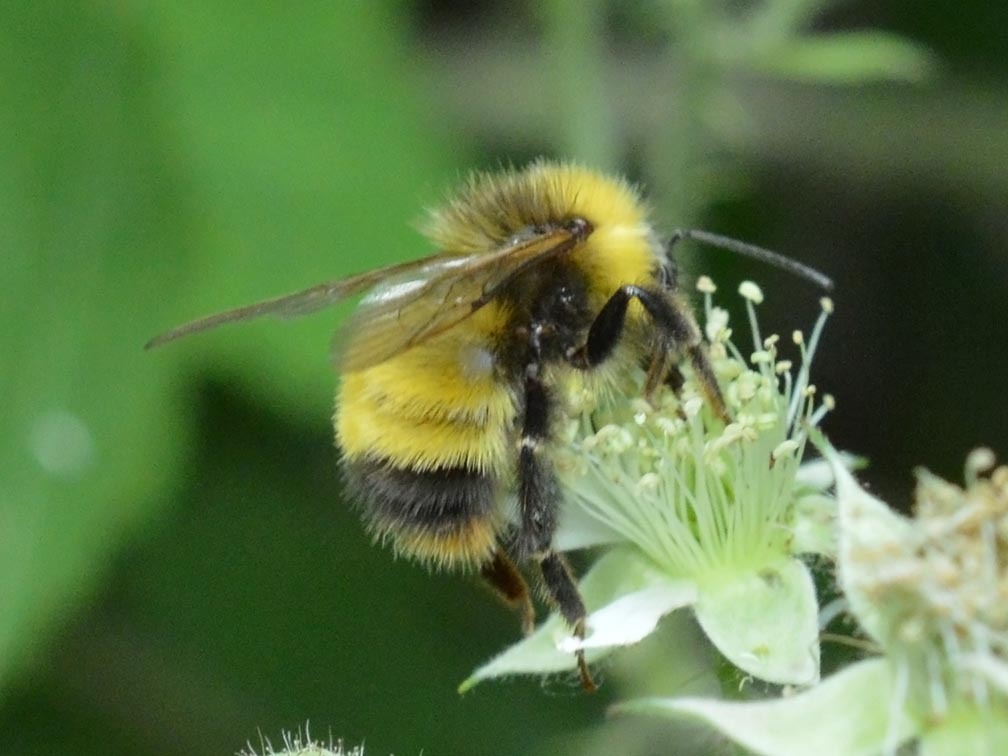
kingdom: Animalia
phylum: Arthropoda
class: Insecta
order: Hymenoptera
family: Apidae
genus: Bombus
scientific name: Bombus haematurus
